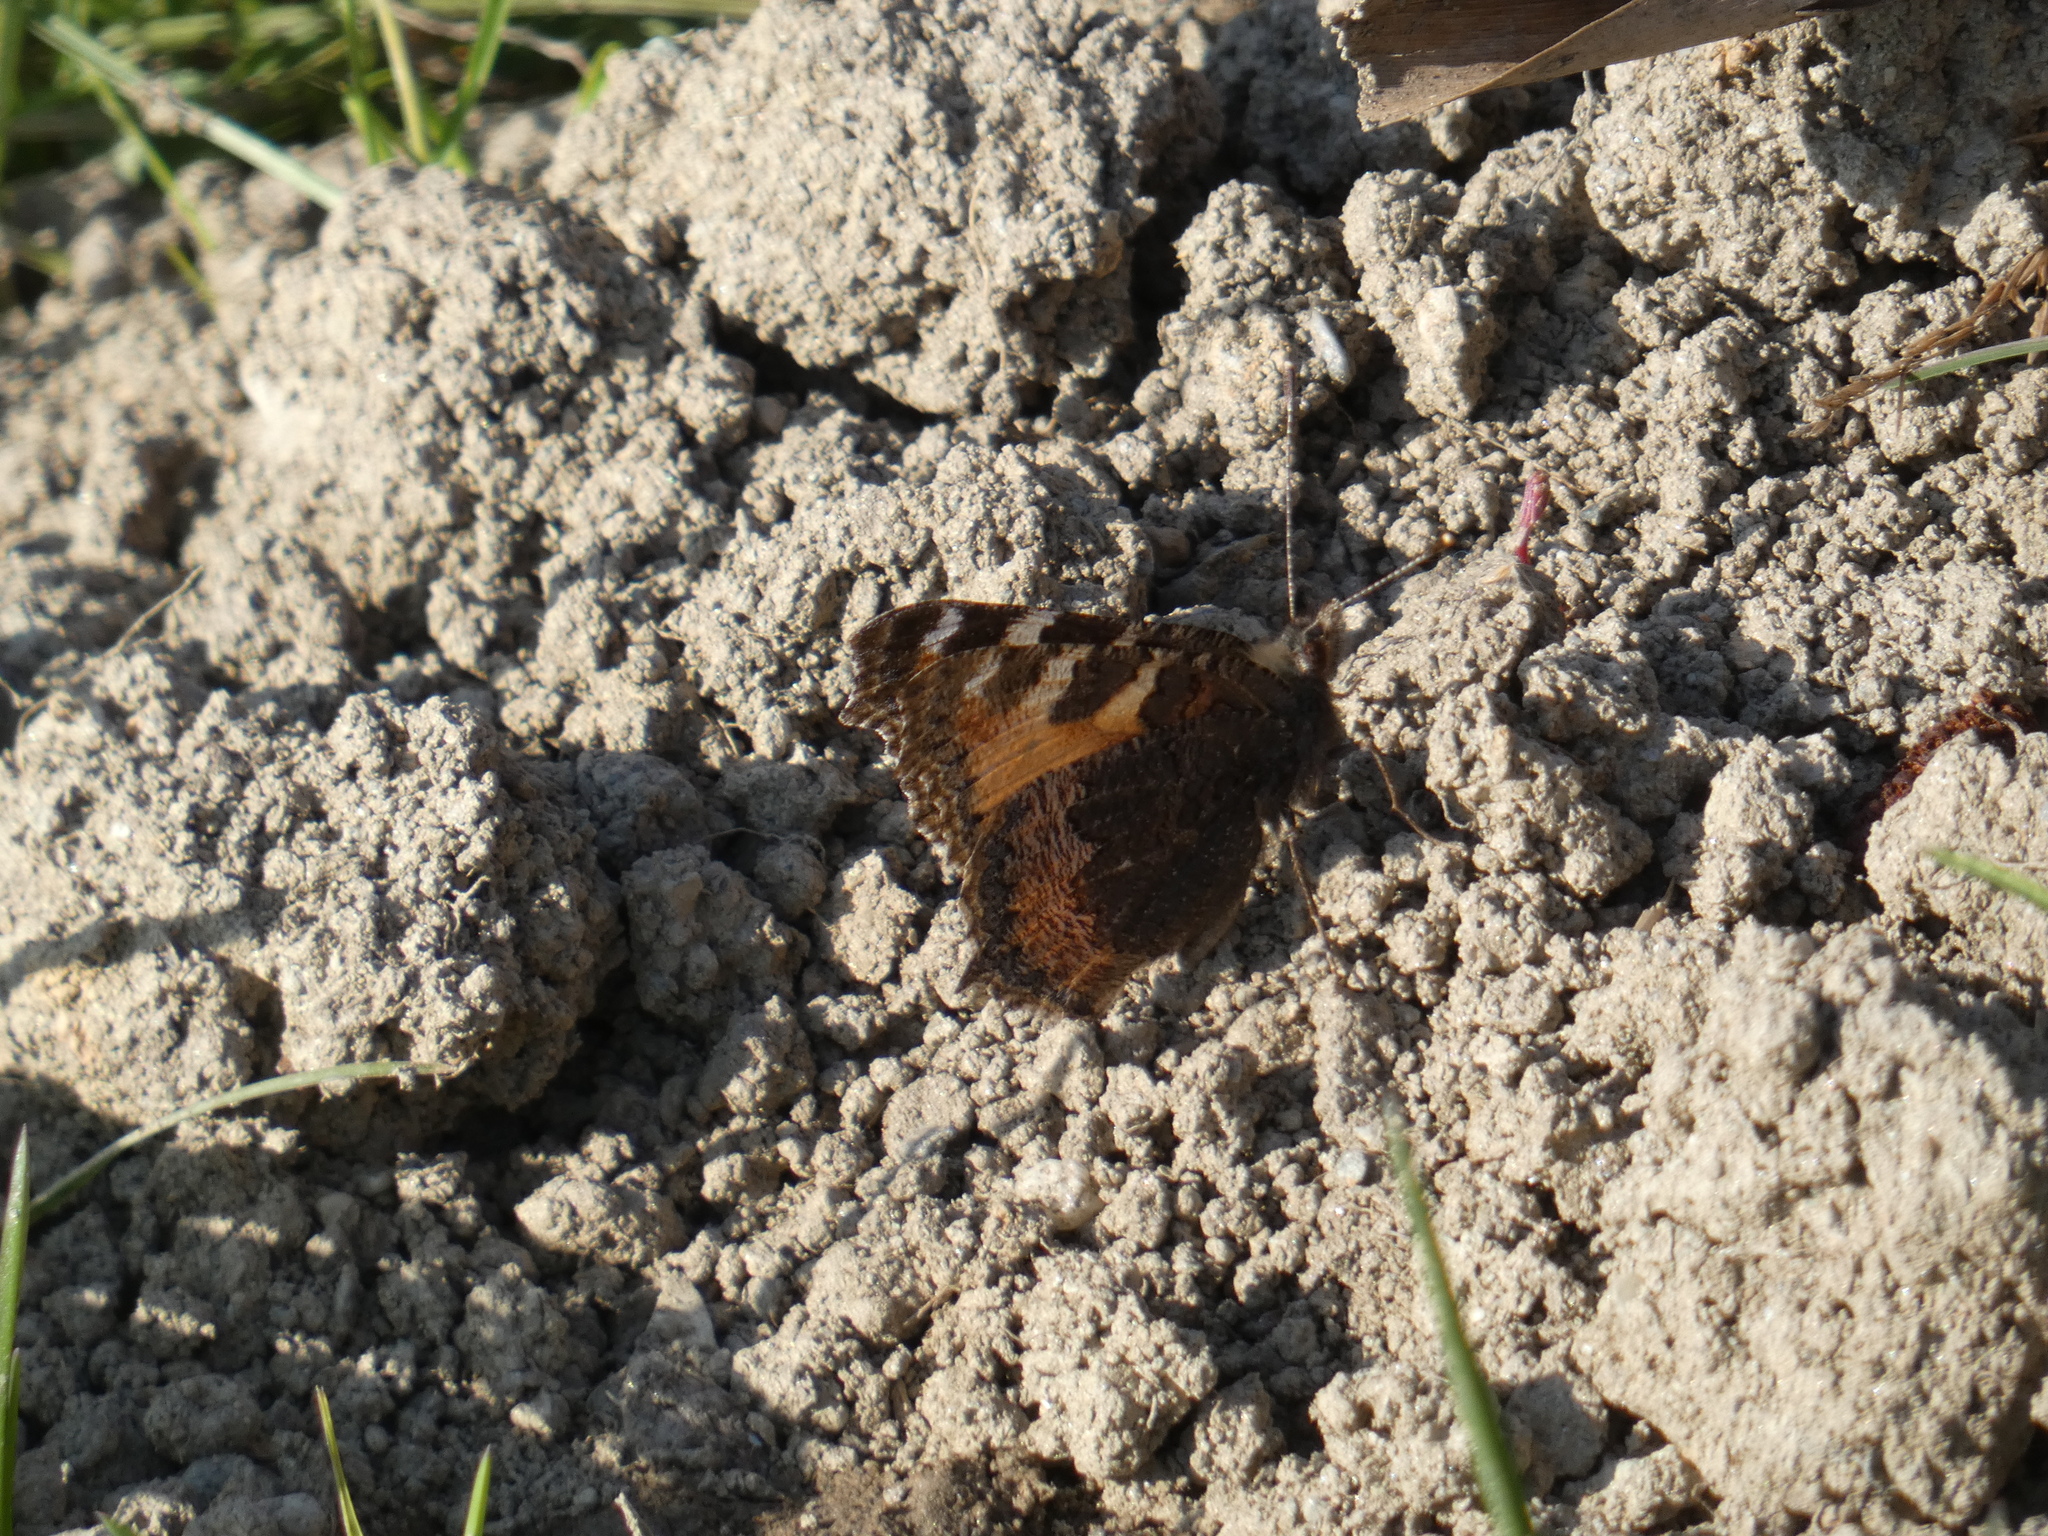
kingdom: Animalia
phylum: Arthropoda
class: Insecta
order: Lepidoptera
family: Nymphalidae
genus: Aglais
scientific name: Aglais urticae
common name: Small tortoiseshell
